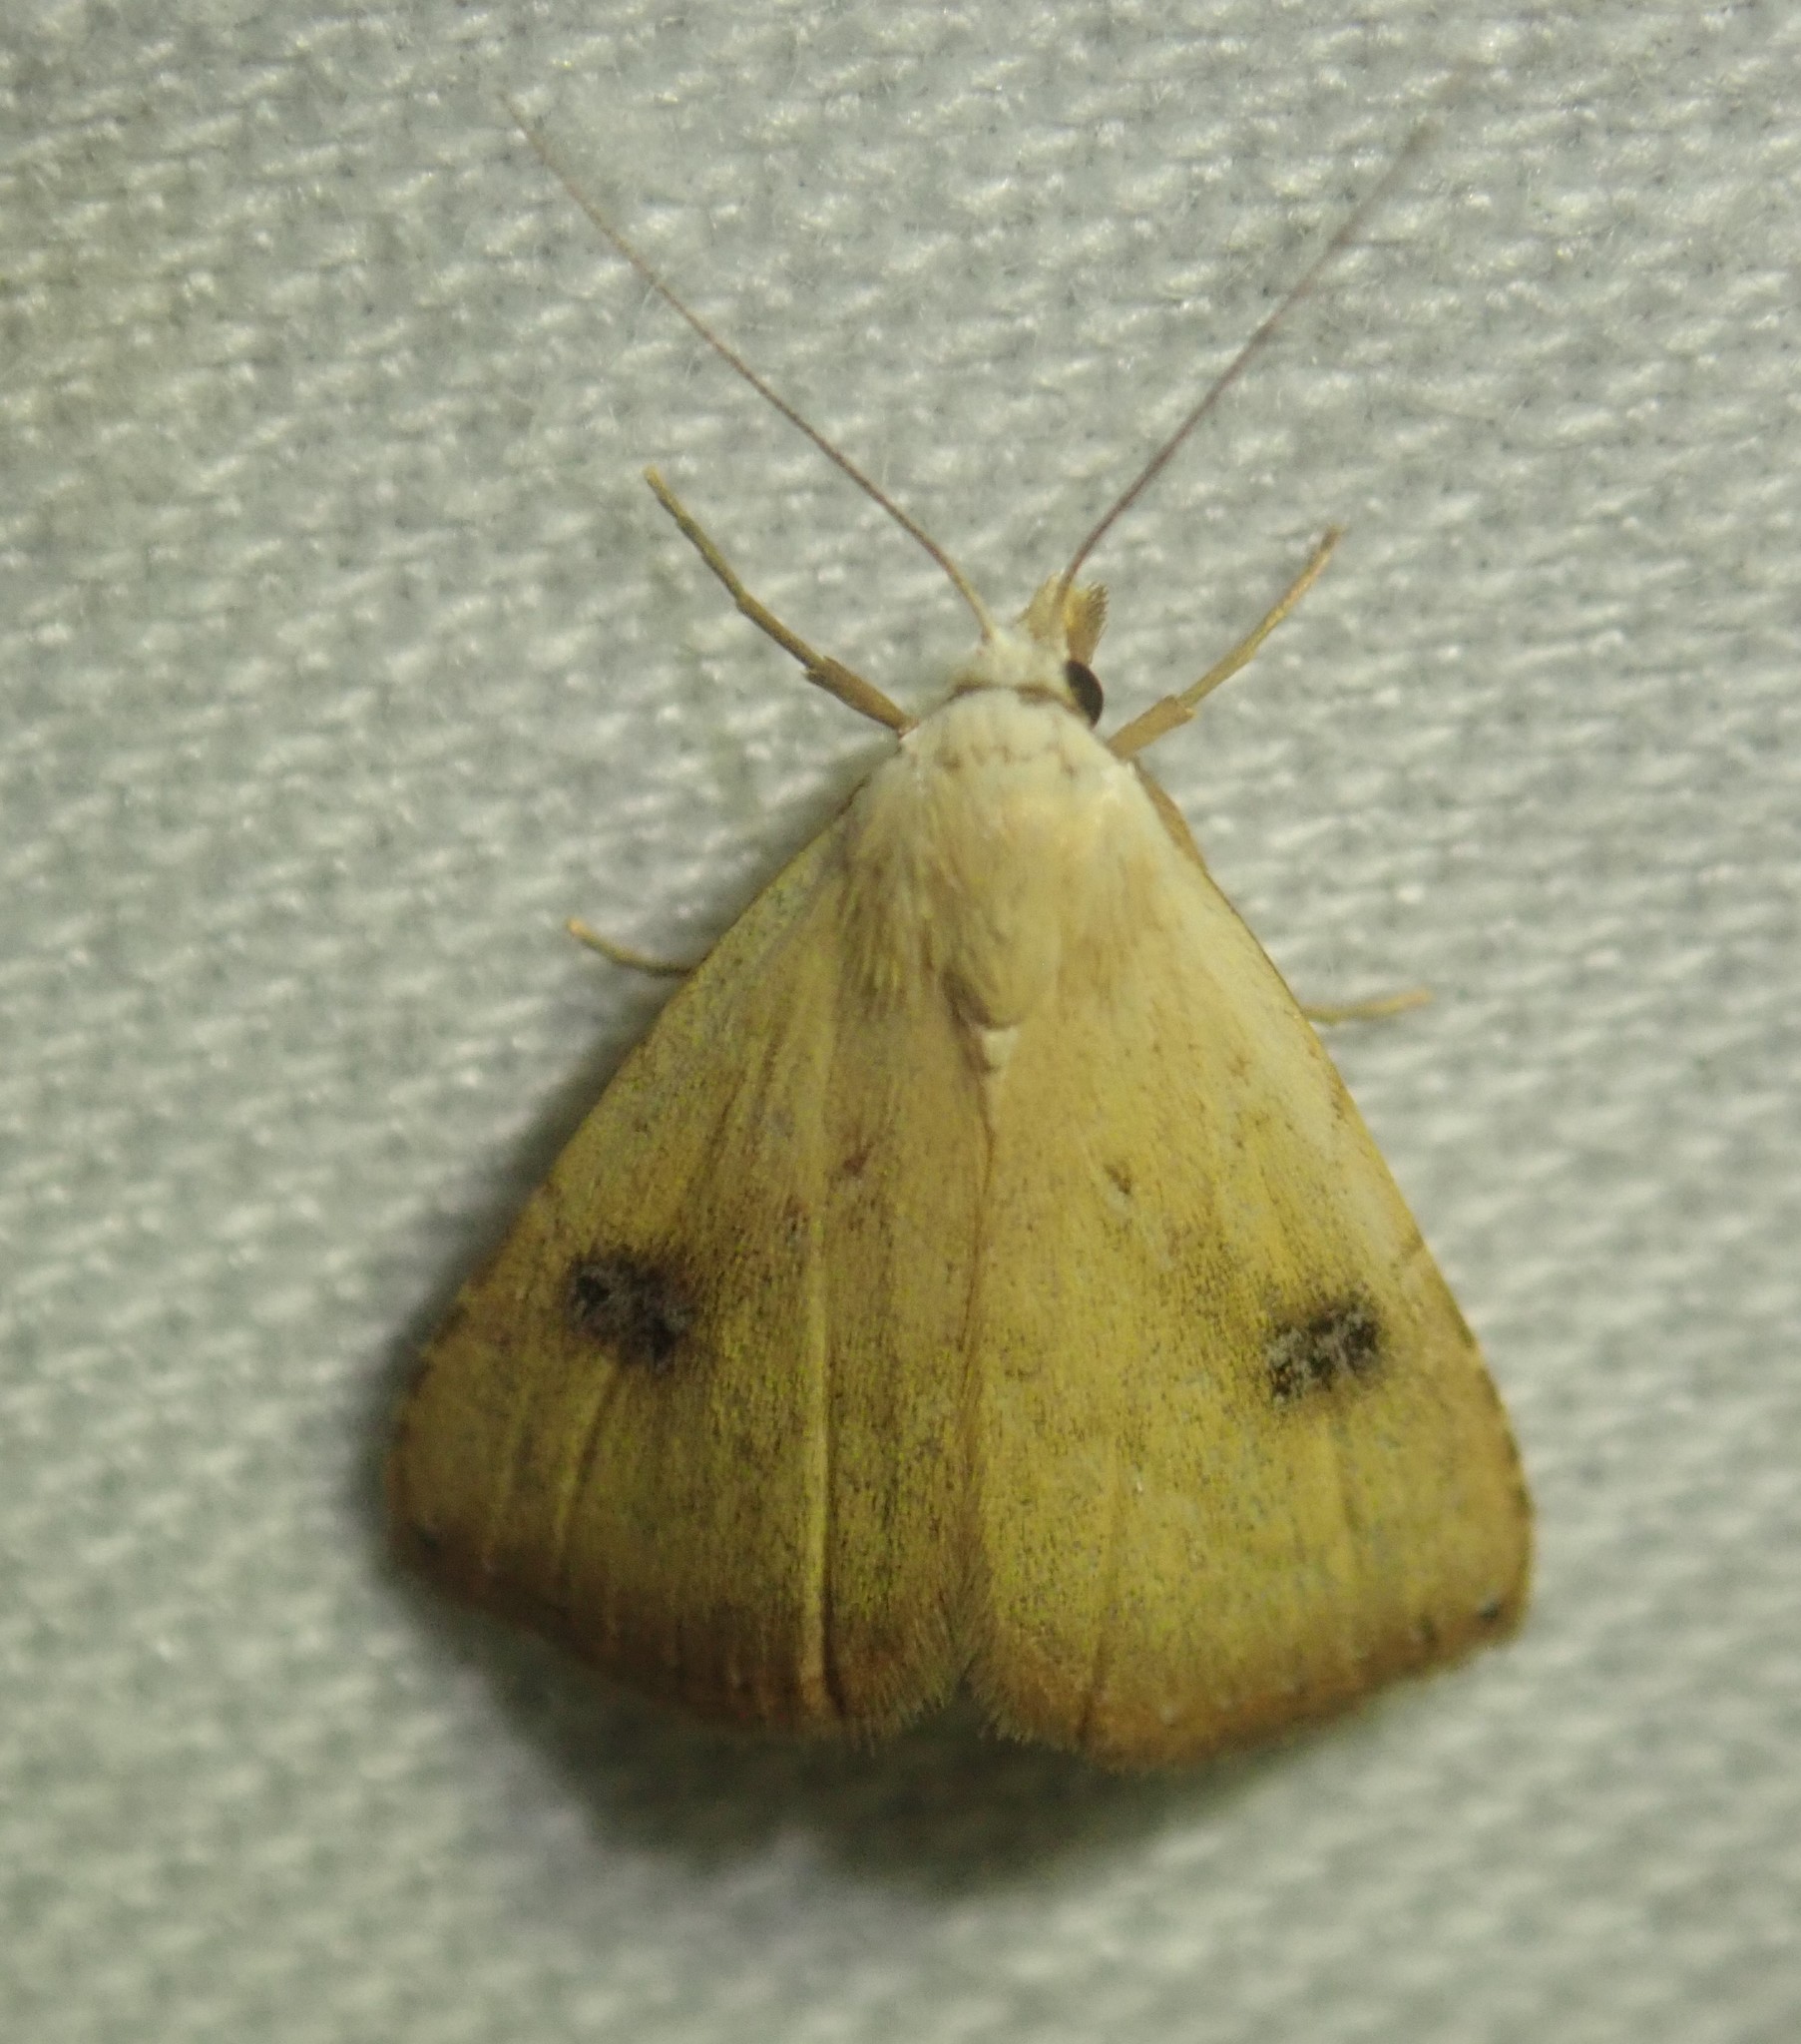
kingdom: Animalia
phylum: Arthropoda
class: Insecta
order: Lepidoptera
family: Erebidae
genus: Rivula
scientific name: Rivula sericealis
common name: Straw dot
